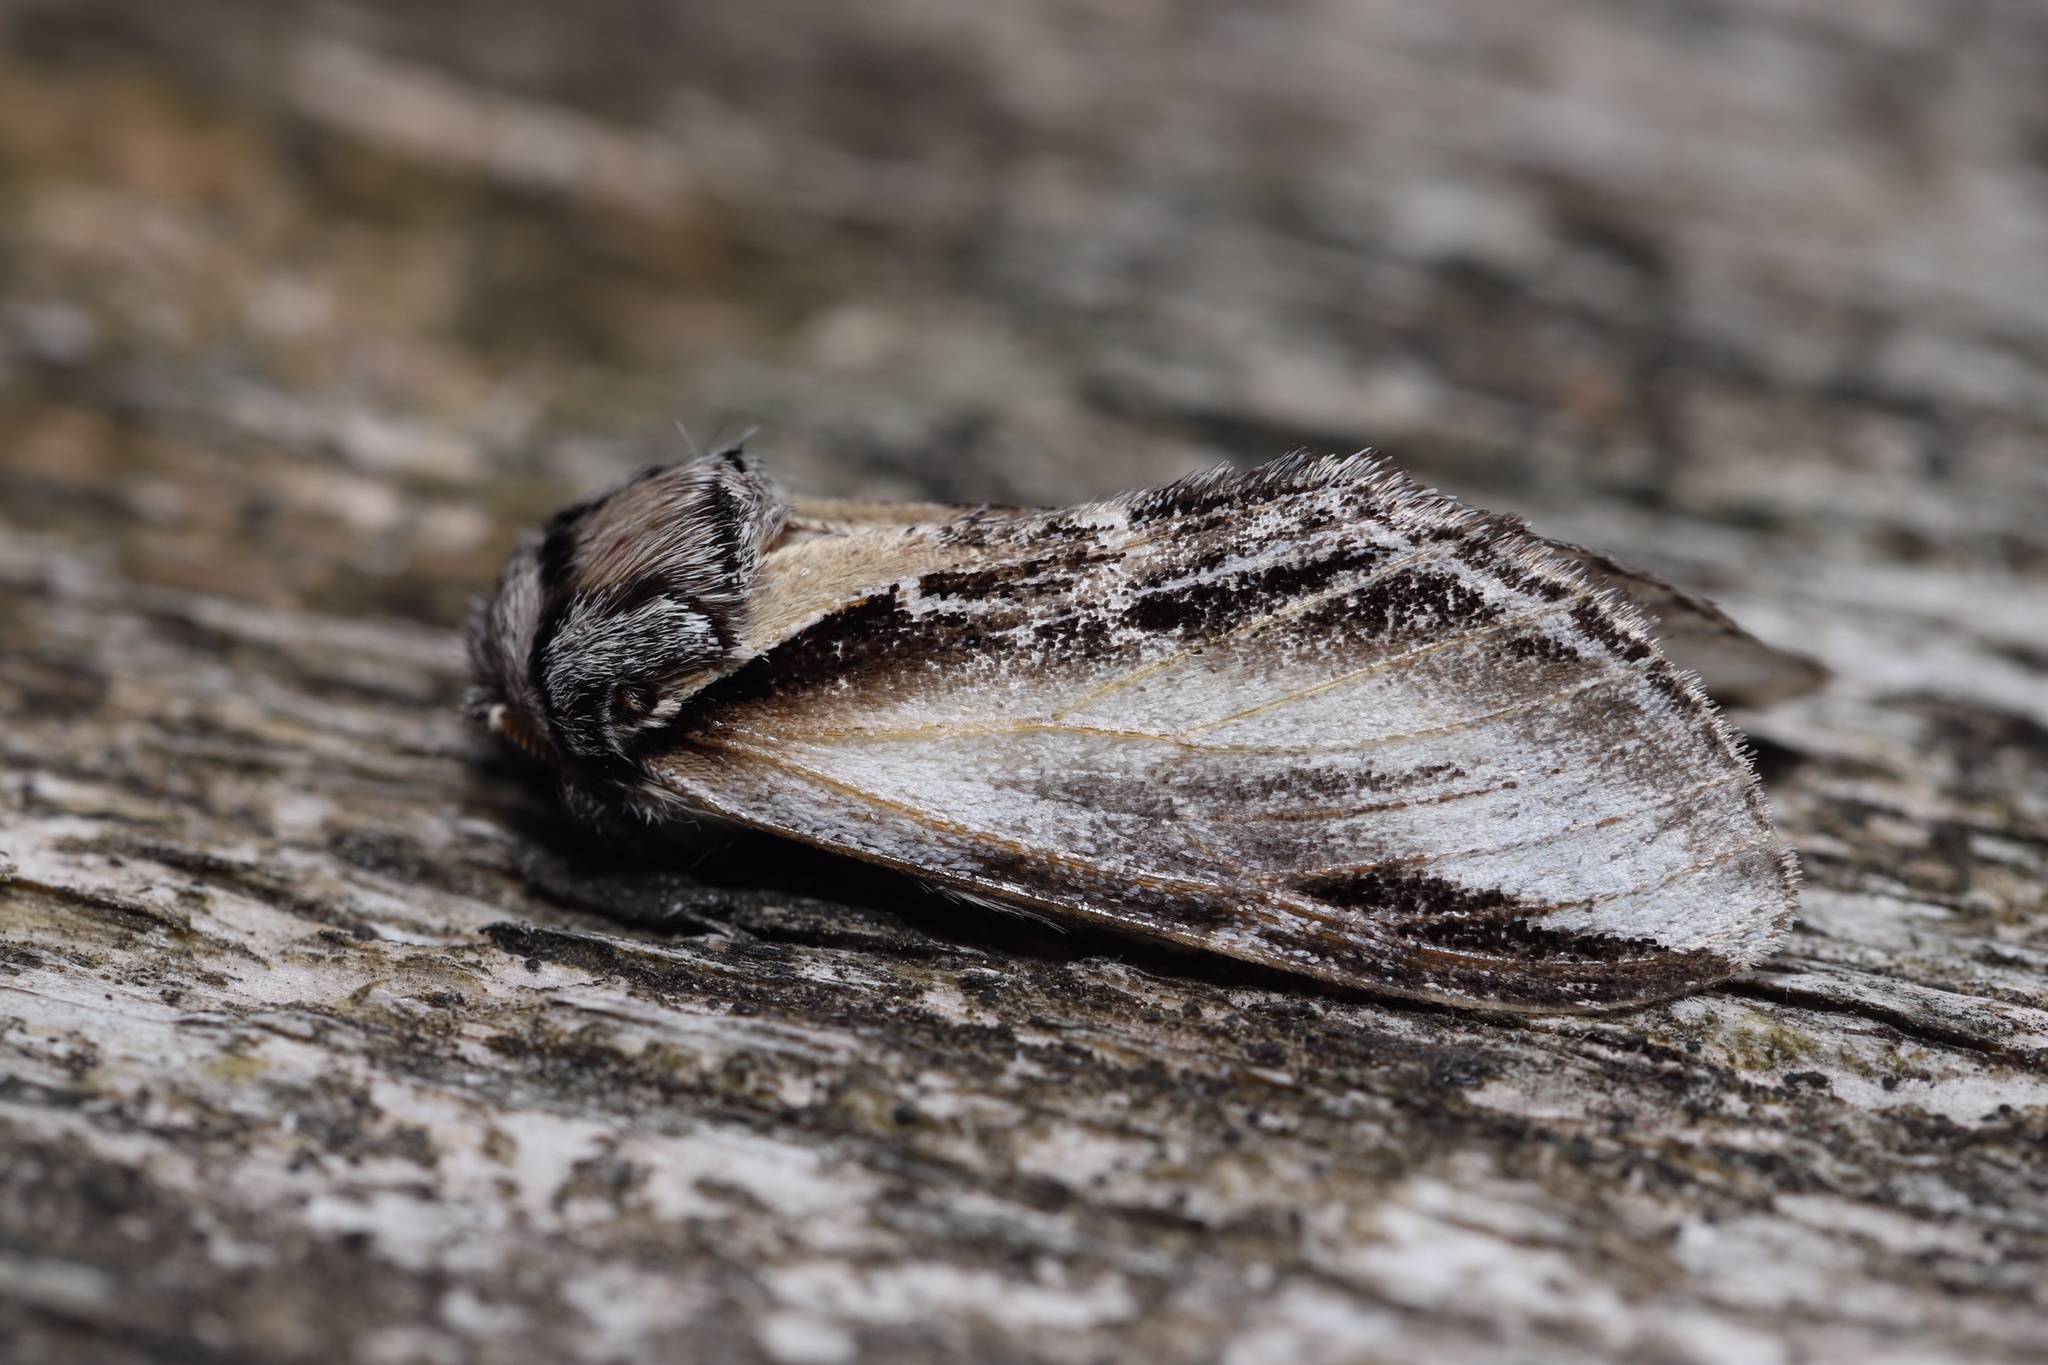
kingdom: Animalia
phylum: Arthropoda
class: Insecta
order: Lepidoptera
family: Notodontidae
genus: Pheosia
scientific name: Pheosia rimosa
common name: Black-rimmed prominent
